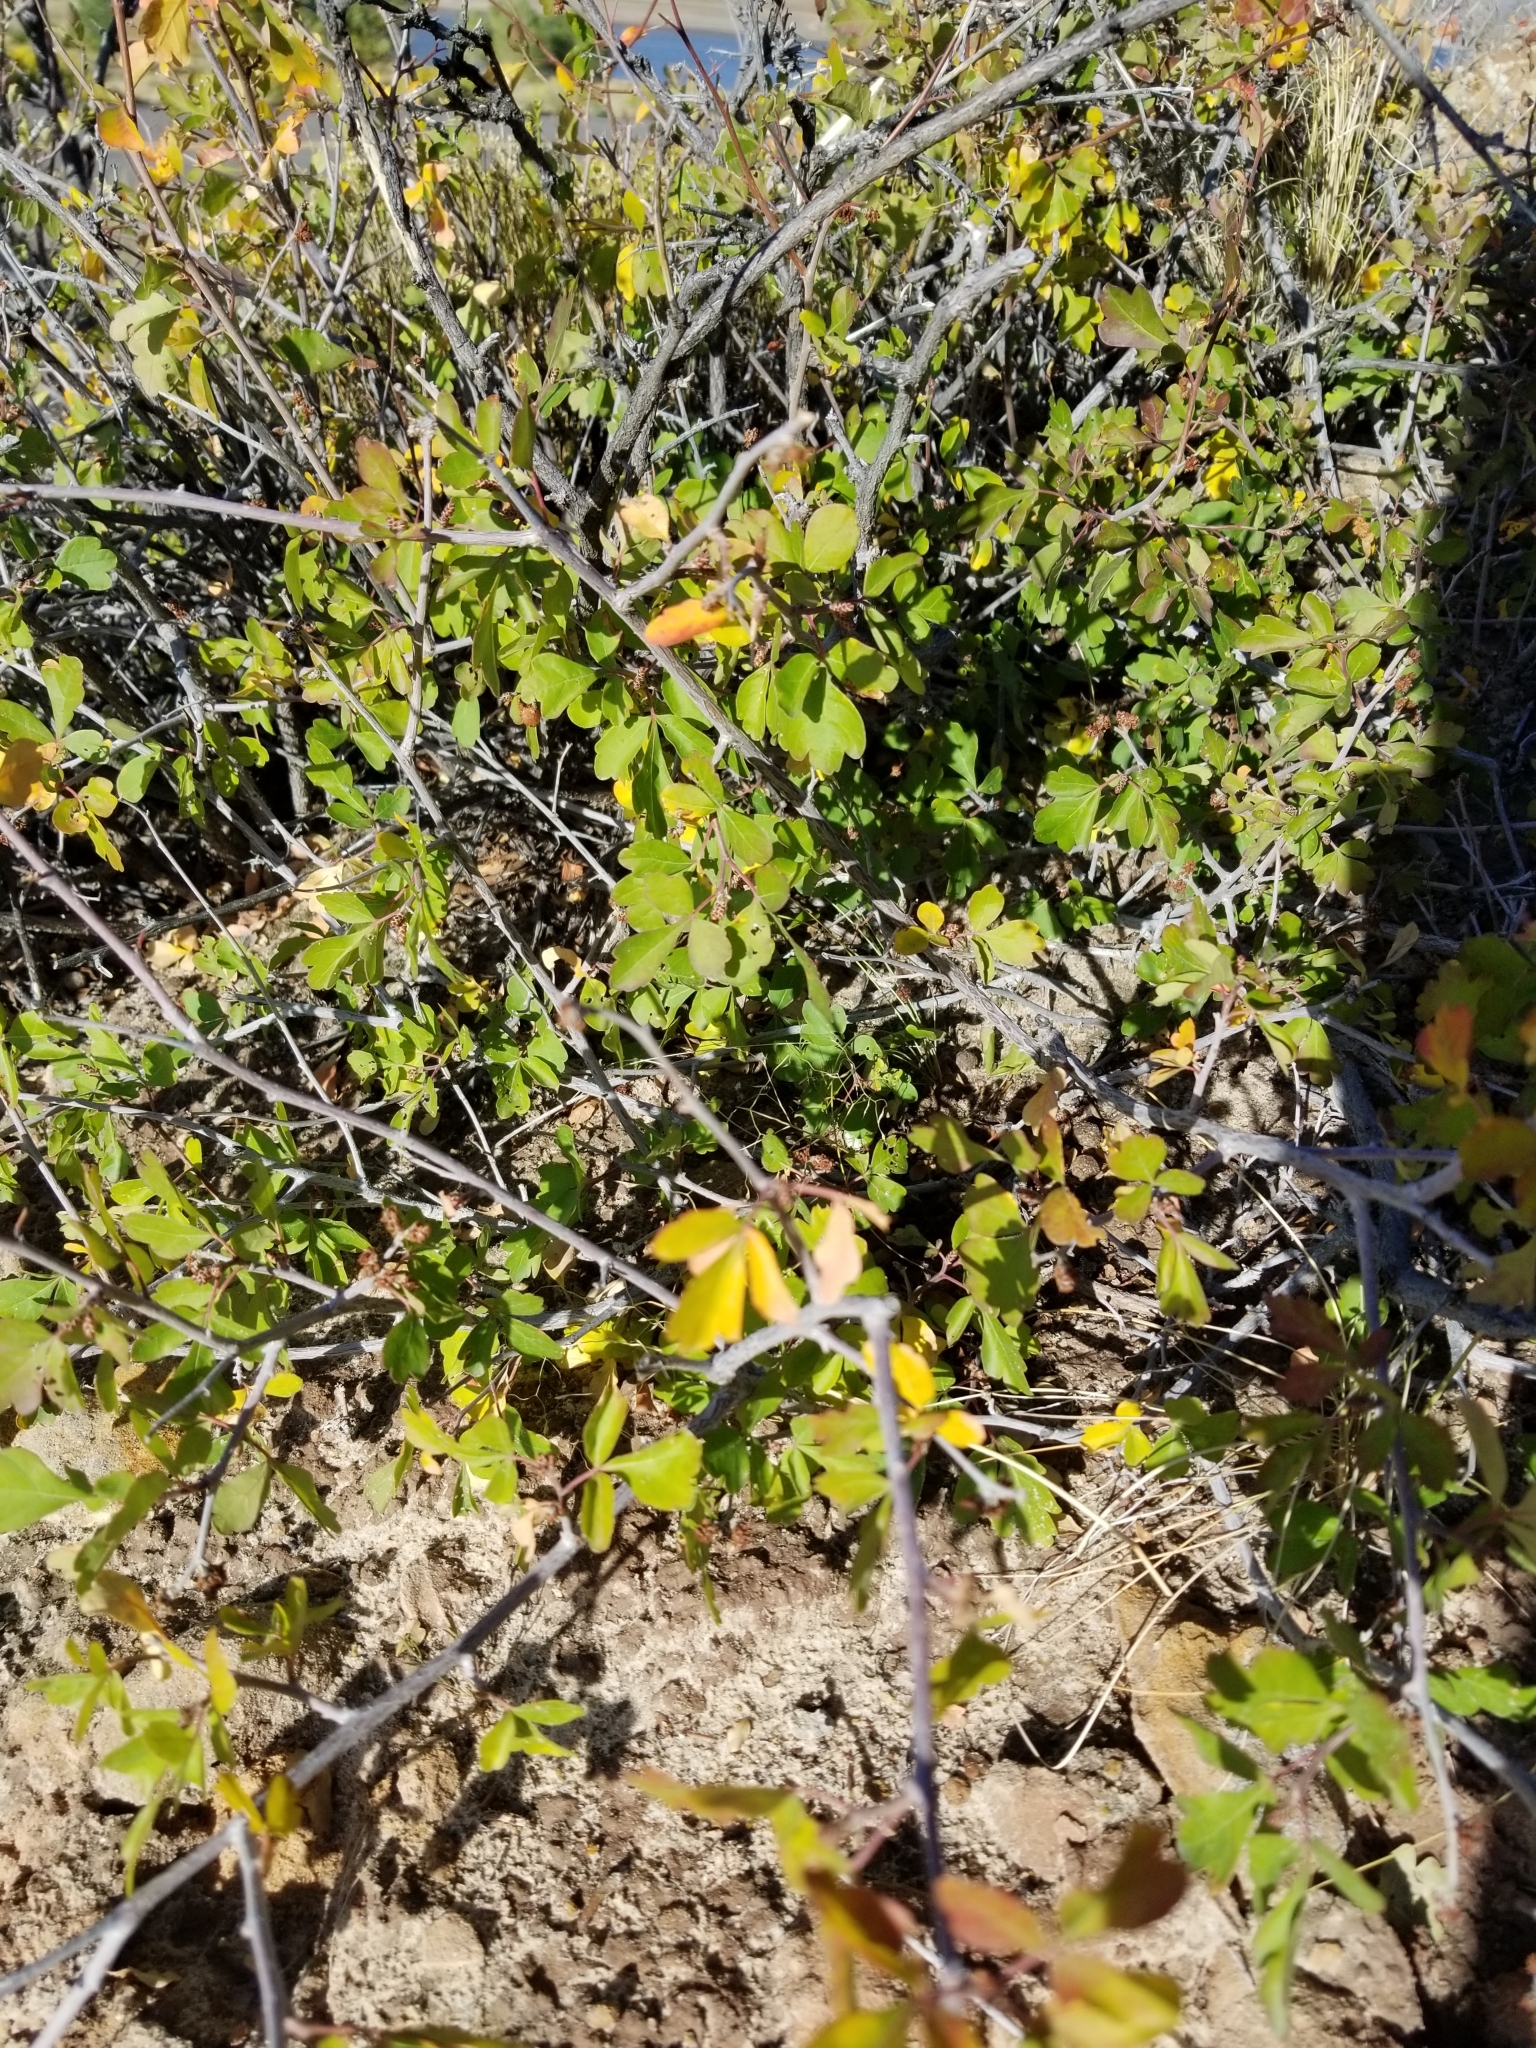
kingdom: Plantae
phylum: Tracheophyta
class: Magnoliopsida
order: Sapindales
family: Anacardiaceae
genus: Rhus
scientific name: Rhus aromatica
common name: Aromatic sumac
